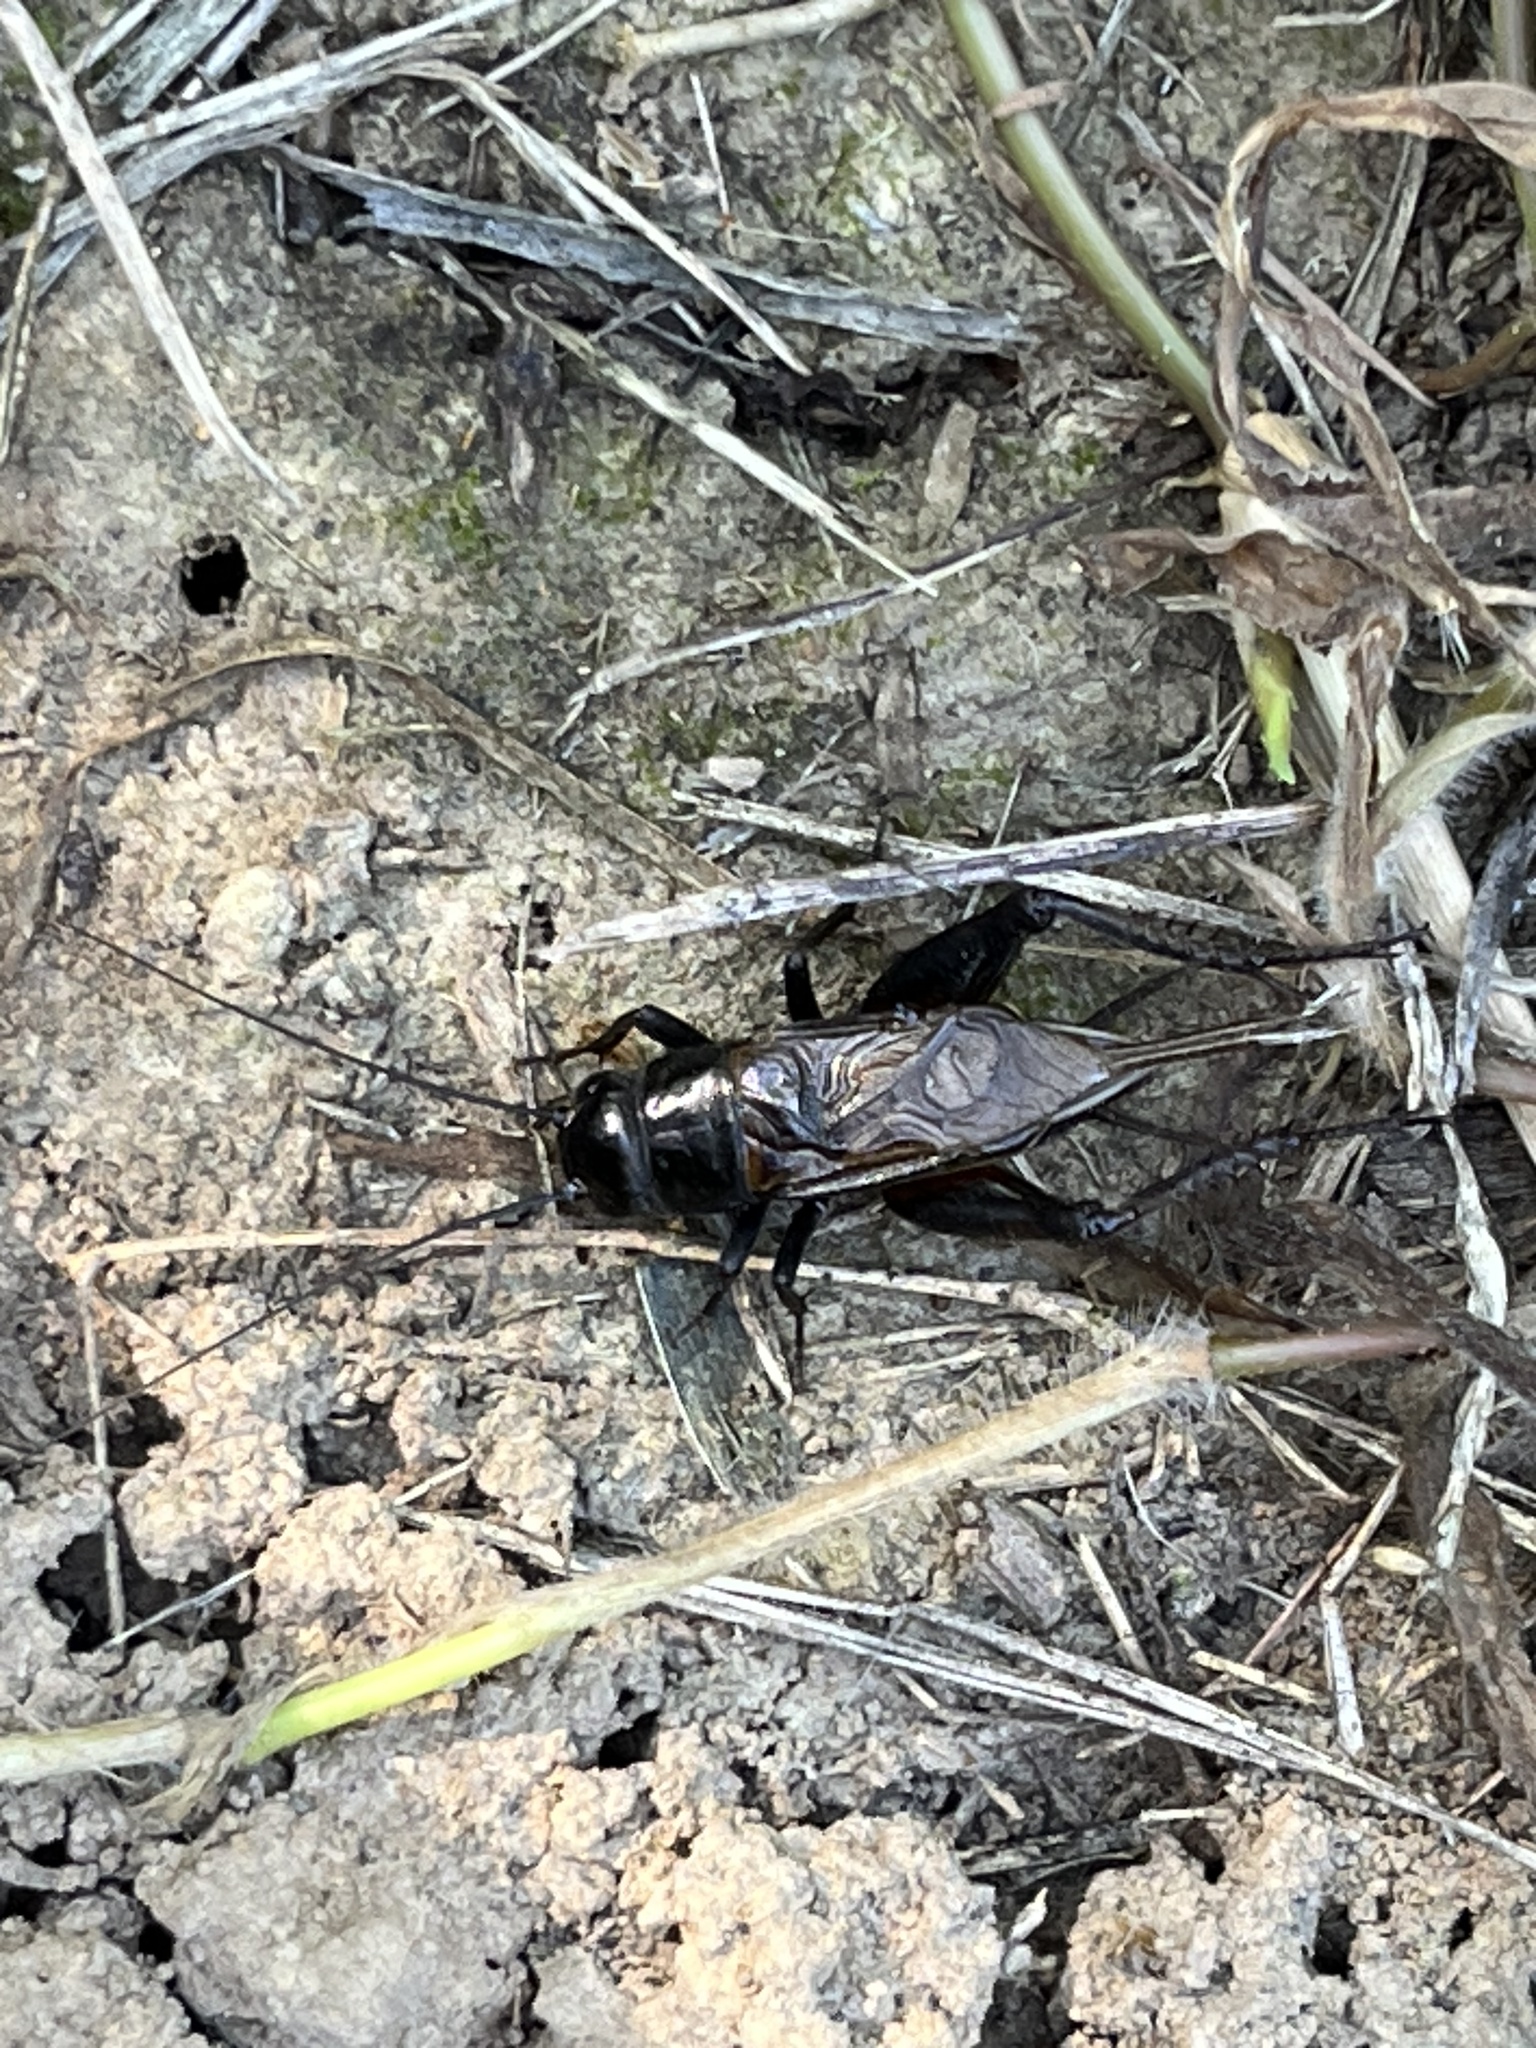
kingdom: Animalia
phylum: Arthropoda
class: Insecta
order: Orthoptera
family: Gryllidae
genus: Gryllus
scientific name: Gryllus pennsylvanicus
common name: Fall field cricket
